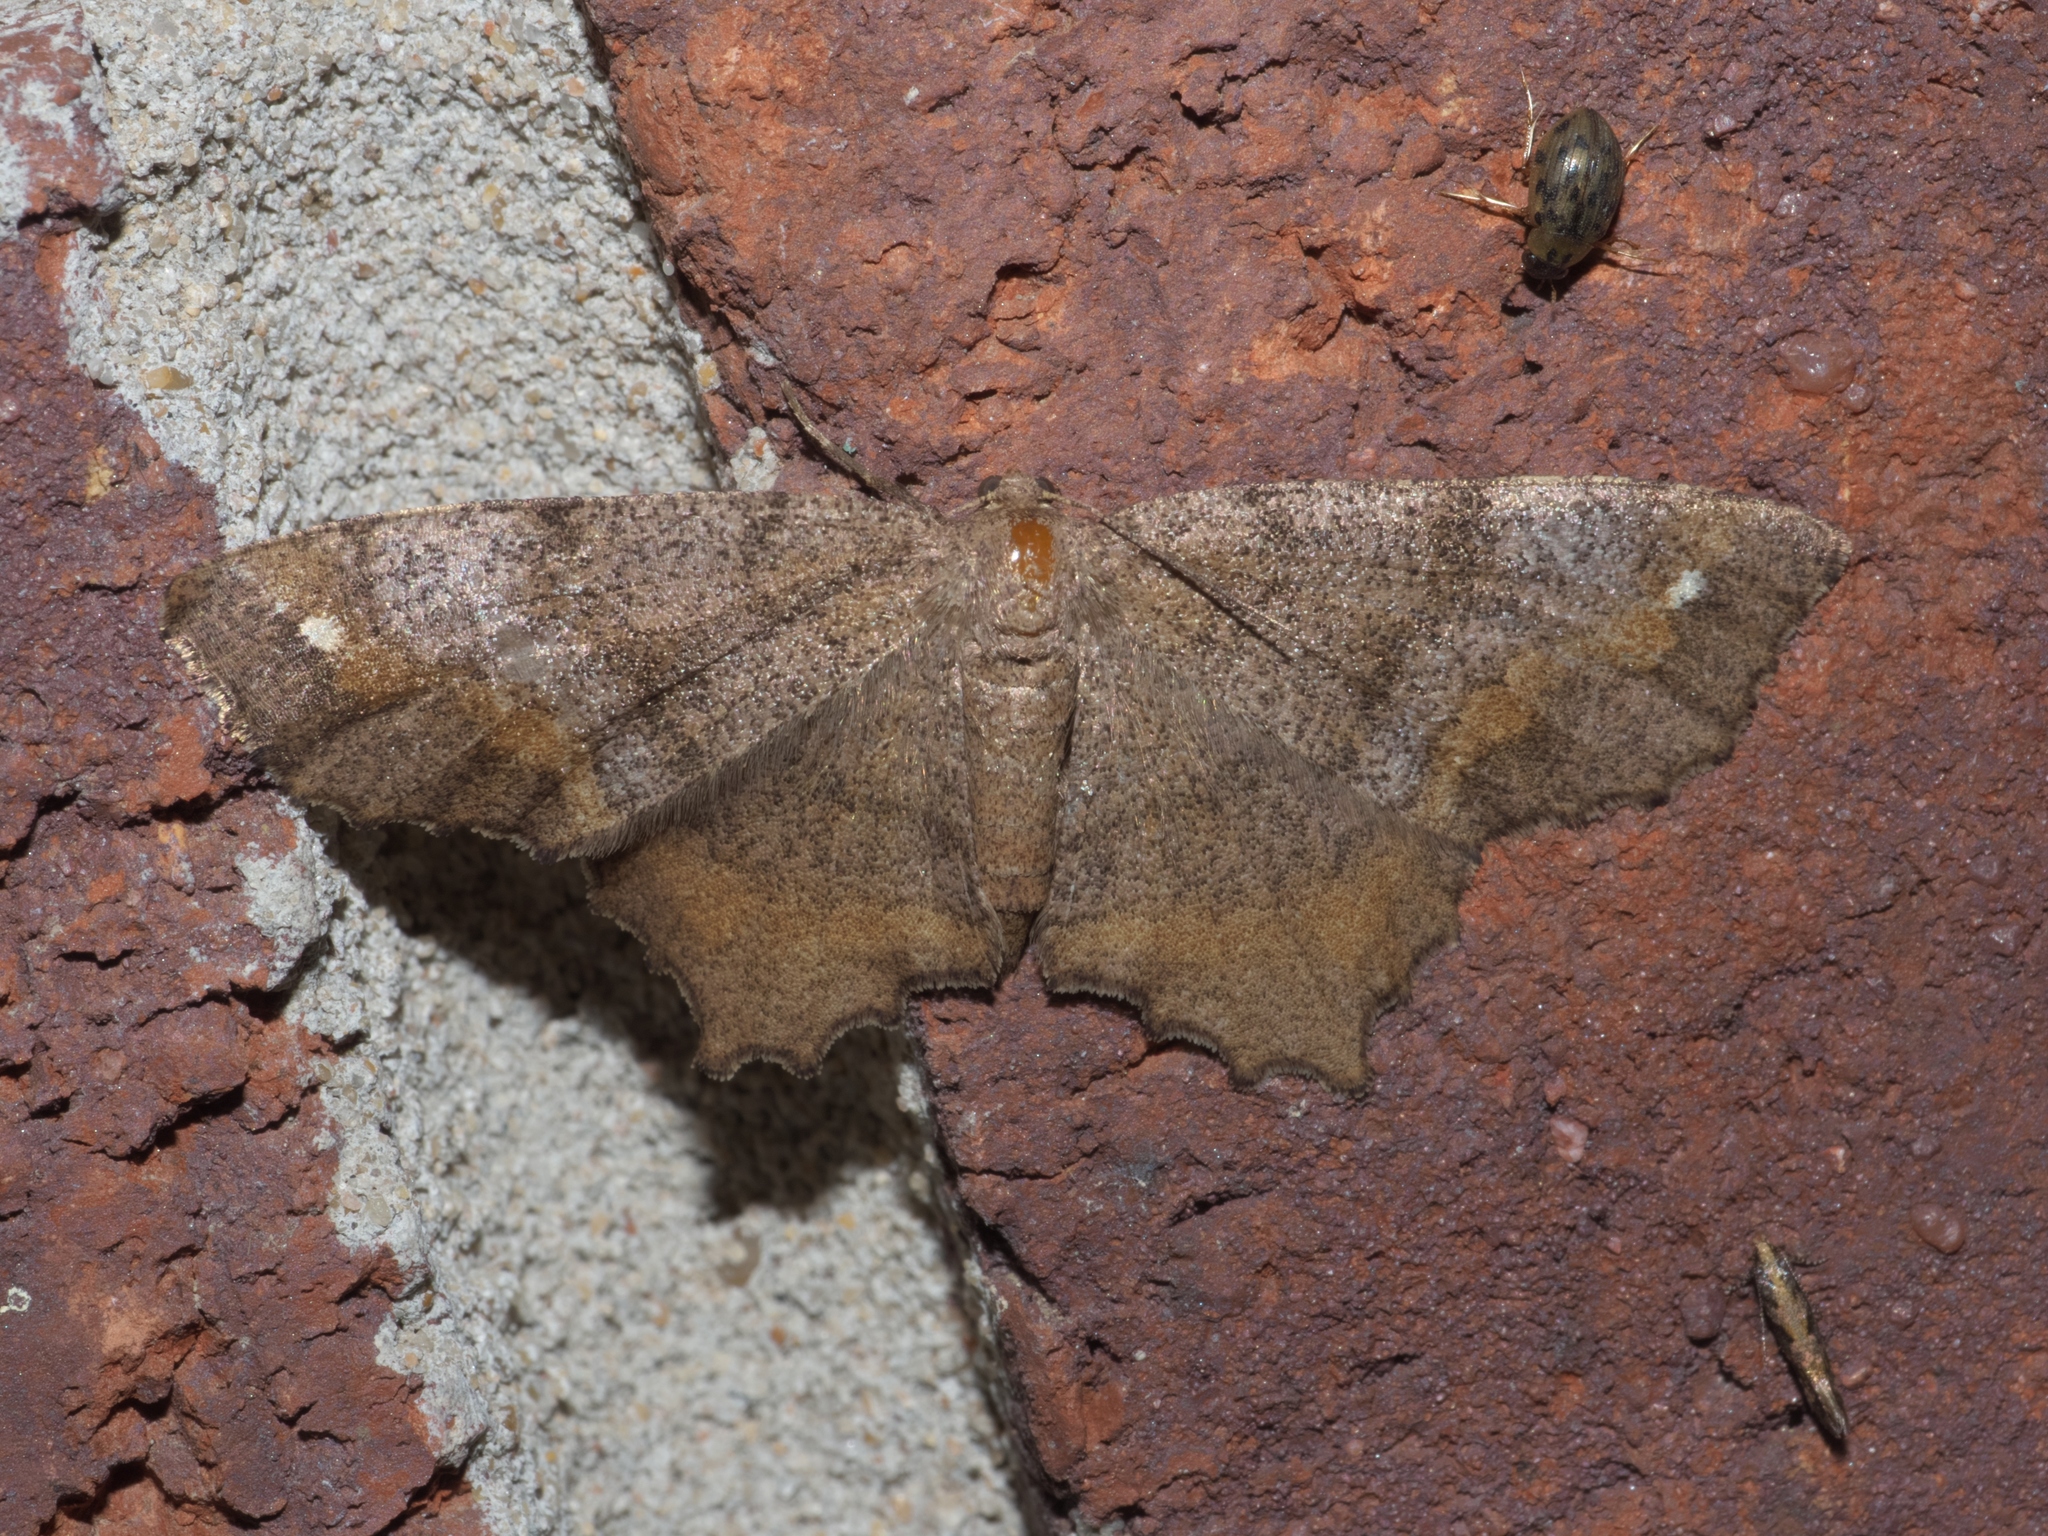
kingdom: Animalia
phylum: Arthropoda
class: Insecta
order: Lepidoptera
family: Geometridae
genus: Hypagyrtis
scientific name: Hypagyrtis esther
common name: Esther moth
